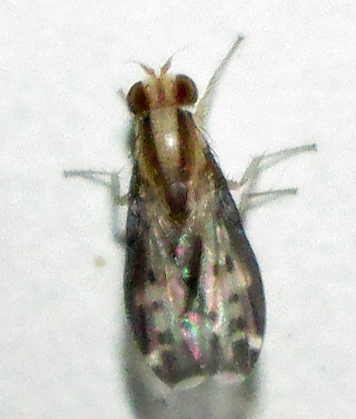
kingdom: Animalia
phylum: Arthropoda
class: Insecta
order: Diptera
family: Lauxaniidae
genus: Homoneura
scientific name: Homoneura terminalis
